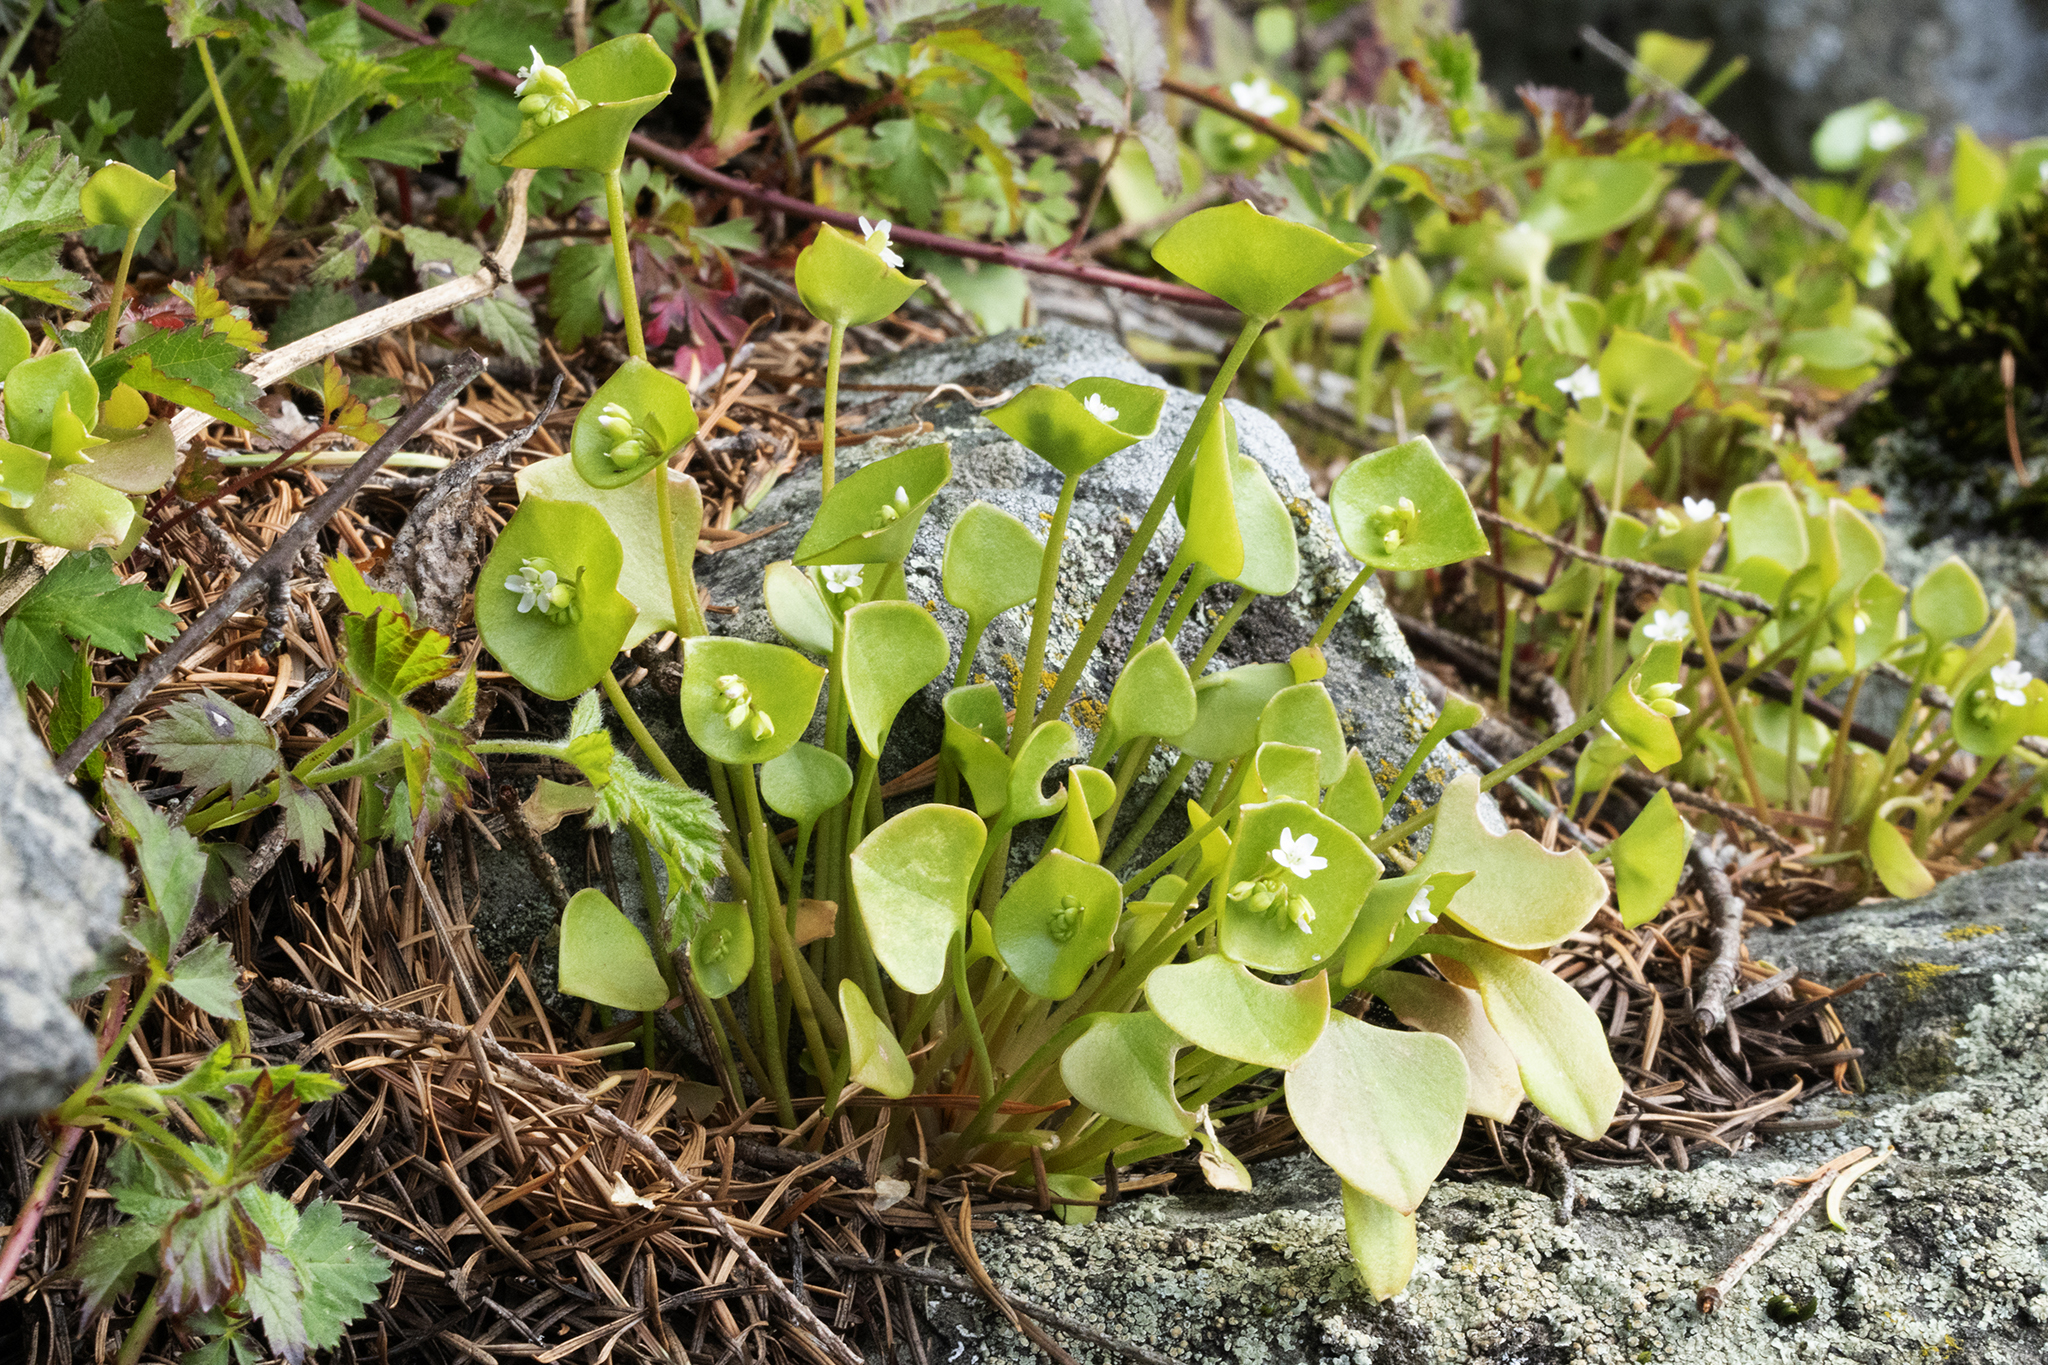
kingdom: Plantae
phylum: Tracheophyta
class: Magnoliopsida
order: Caryophyllales
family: Montiaceae
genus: Claytonia
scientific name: Claytonia perfoliata
